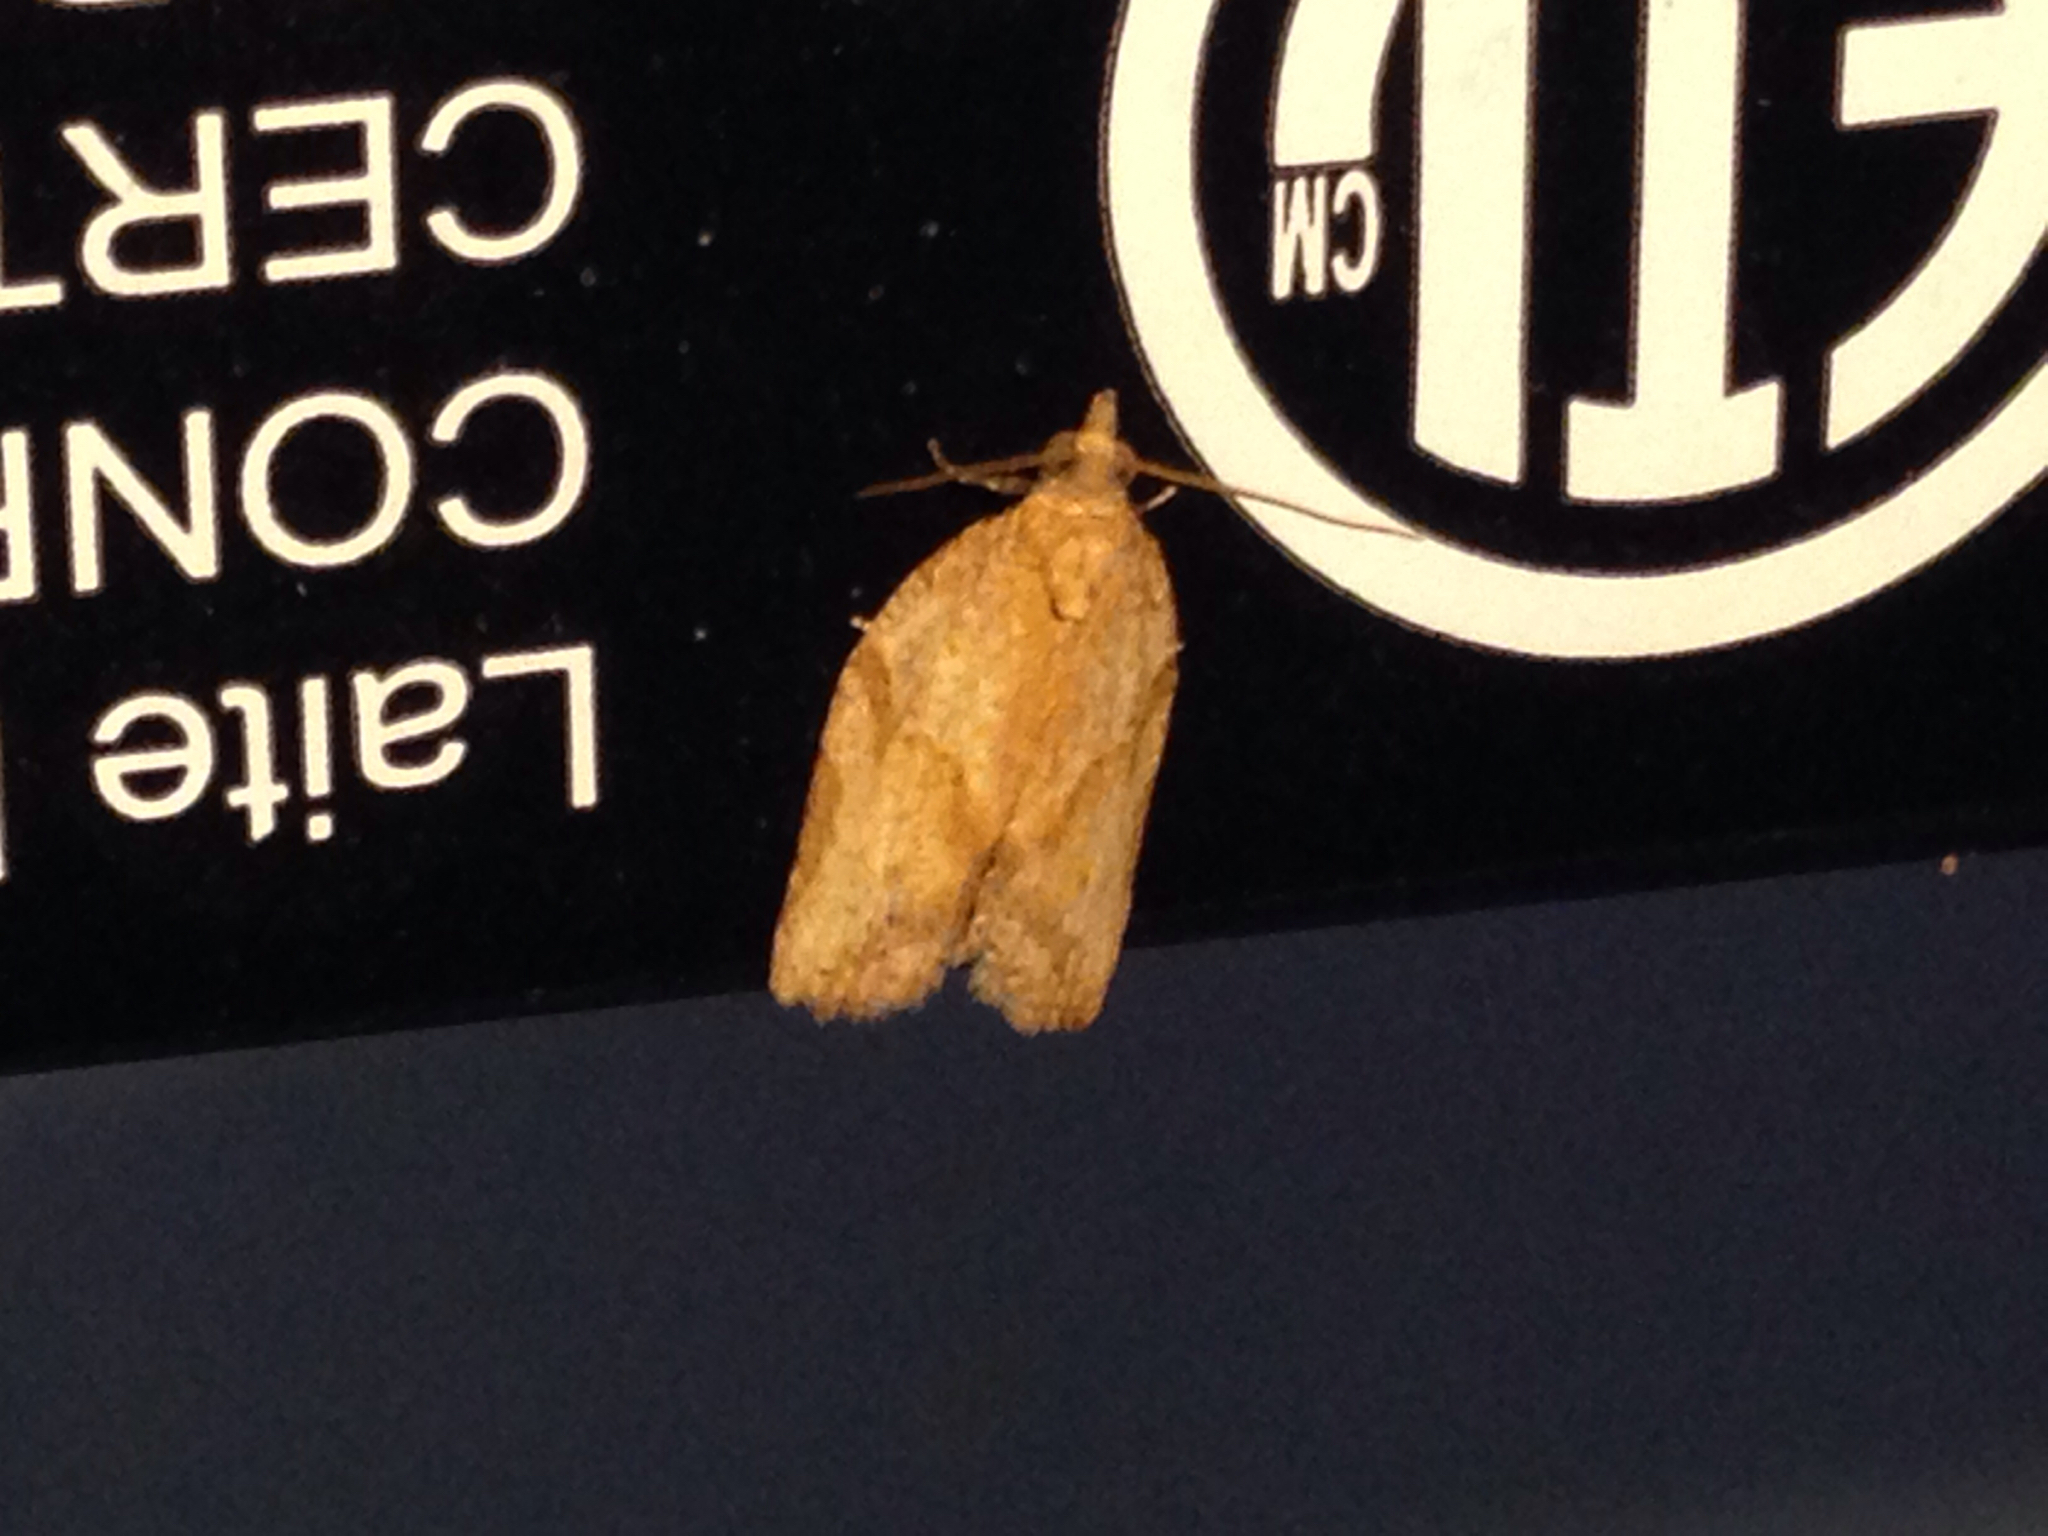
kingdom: Animalia
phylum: Arthropoda
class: Insecta
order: Lepidoptera
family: Tortricidae
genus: Clepsis
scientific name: Clepsis peritana
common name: Garden tortrix
